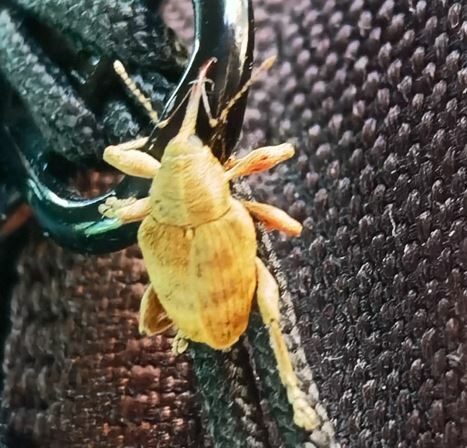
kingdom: Animalia
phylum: Arthropoda
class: Insecta
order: Coleoptera
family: Curculionidae
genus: Curculio
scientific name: Curculio venosus
